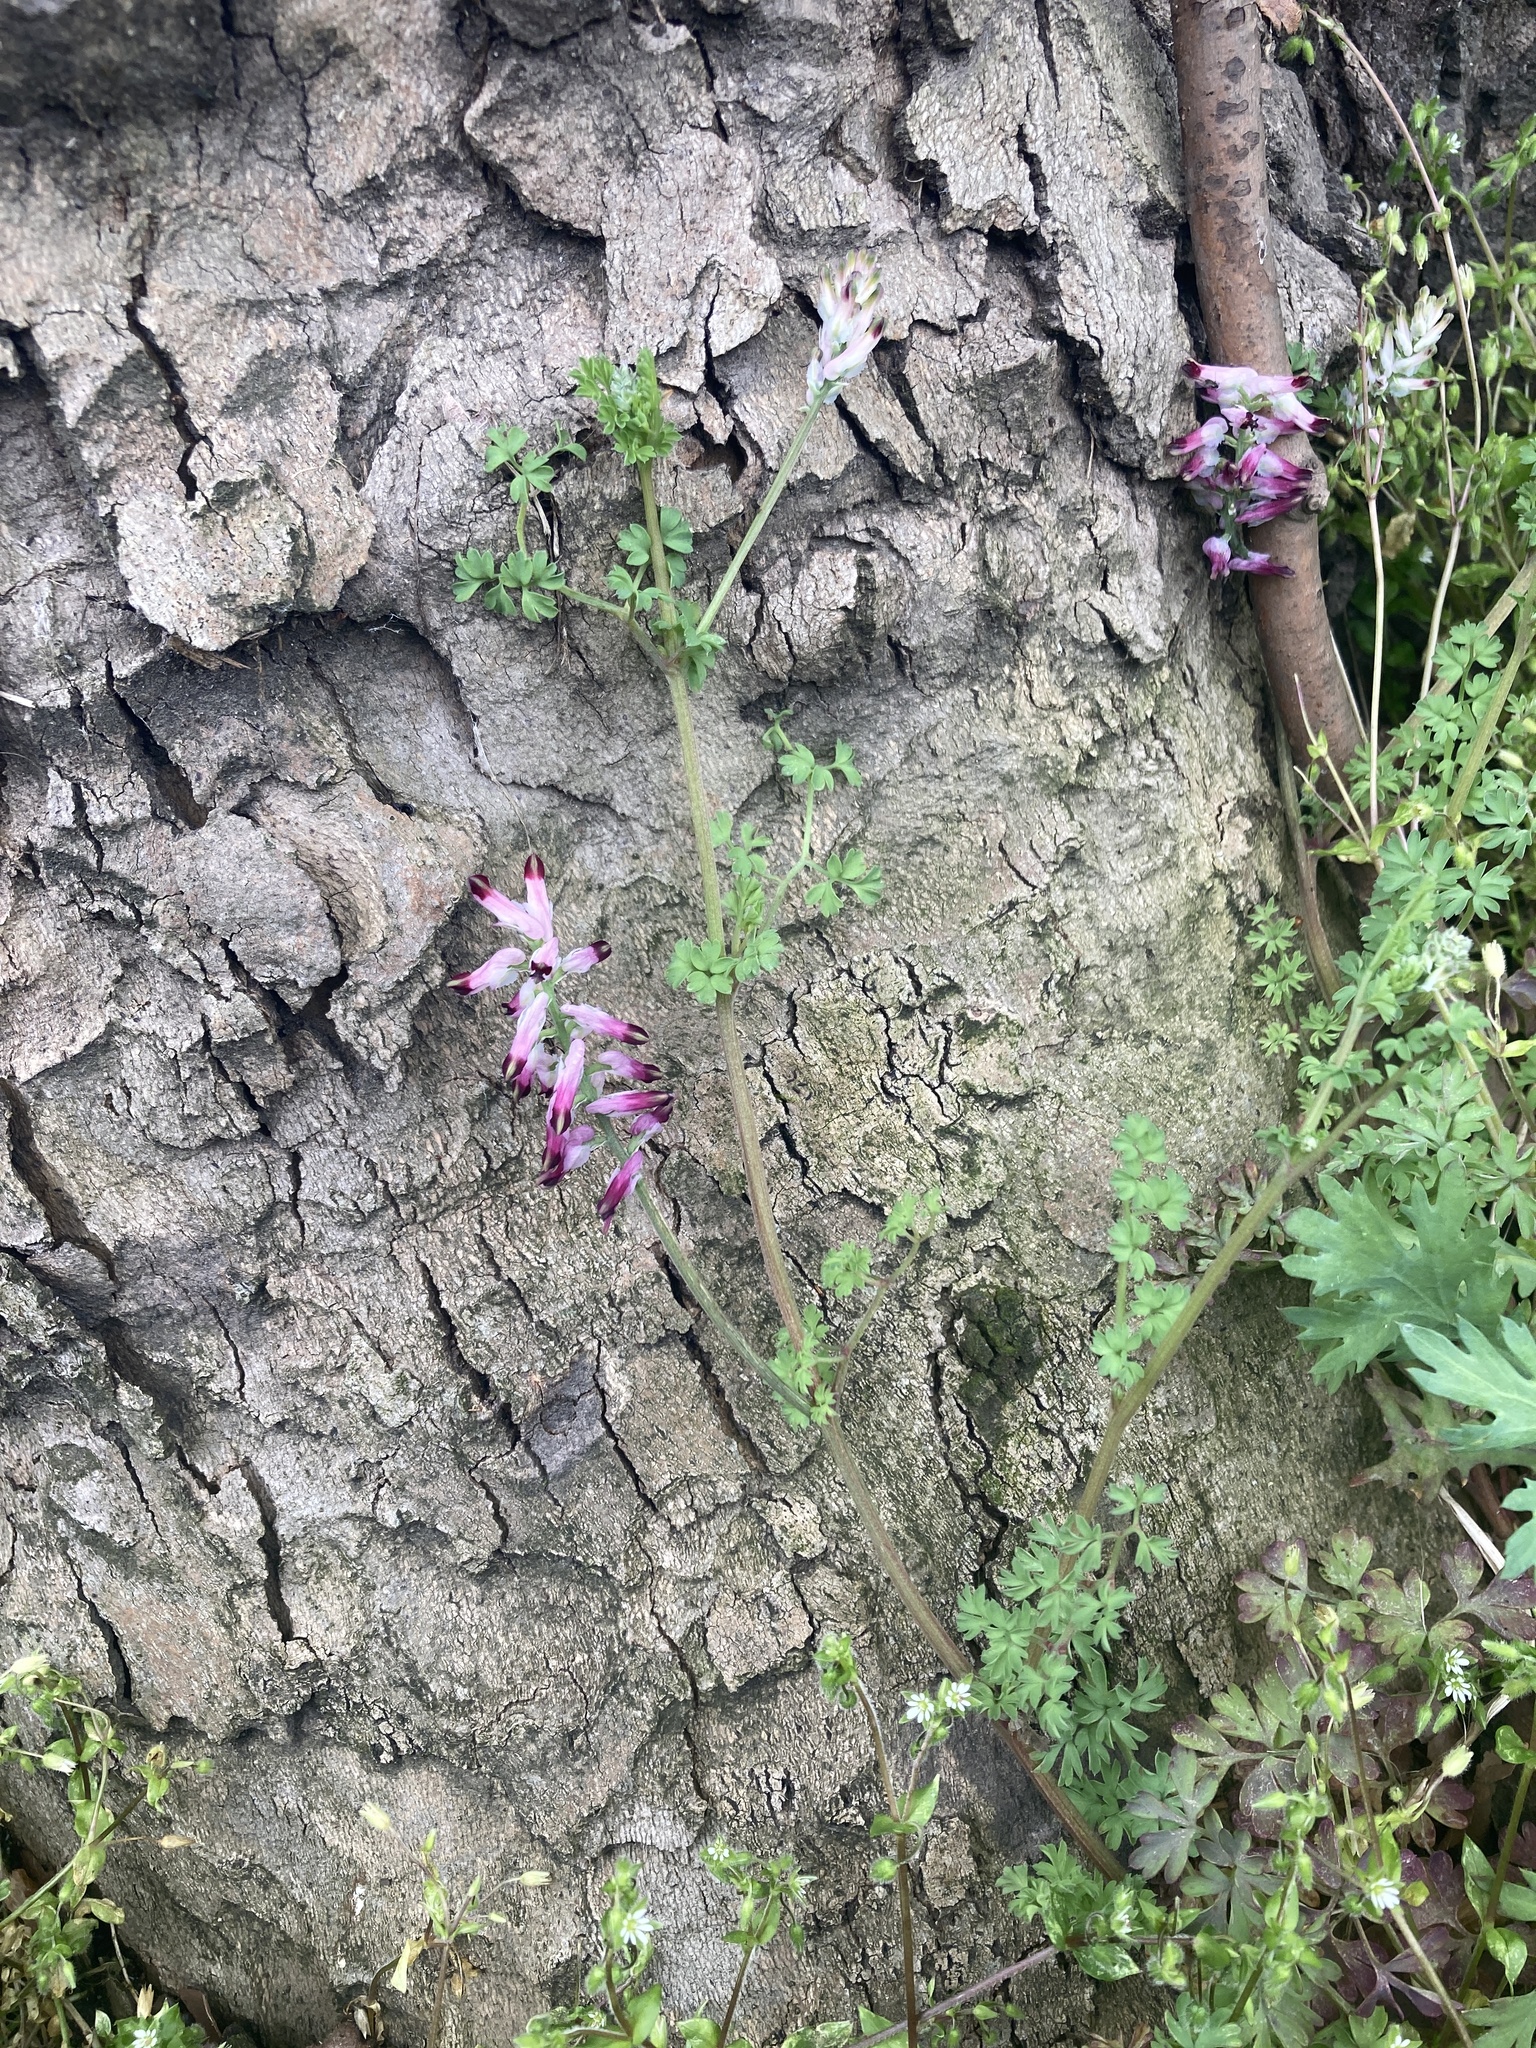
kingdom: Plantae
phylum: Tracheophyta
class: Magnoliopsida
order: Ranunculales
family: Papaveraceae
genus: Fumaria
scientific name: Fumaria muralis
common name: Common ramping-fumitory
